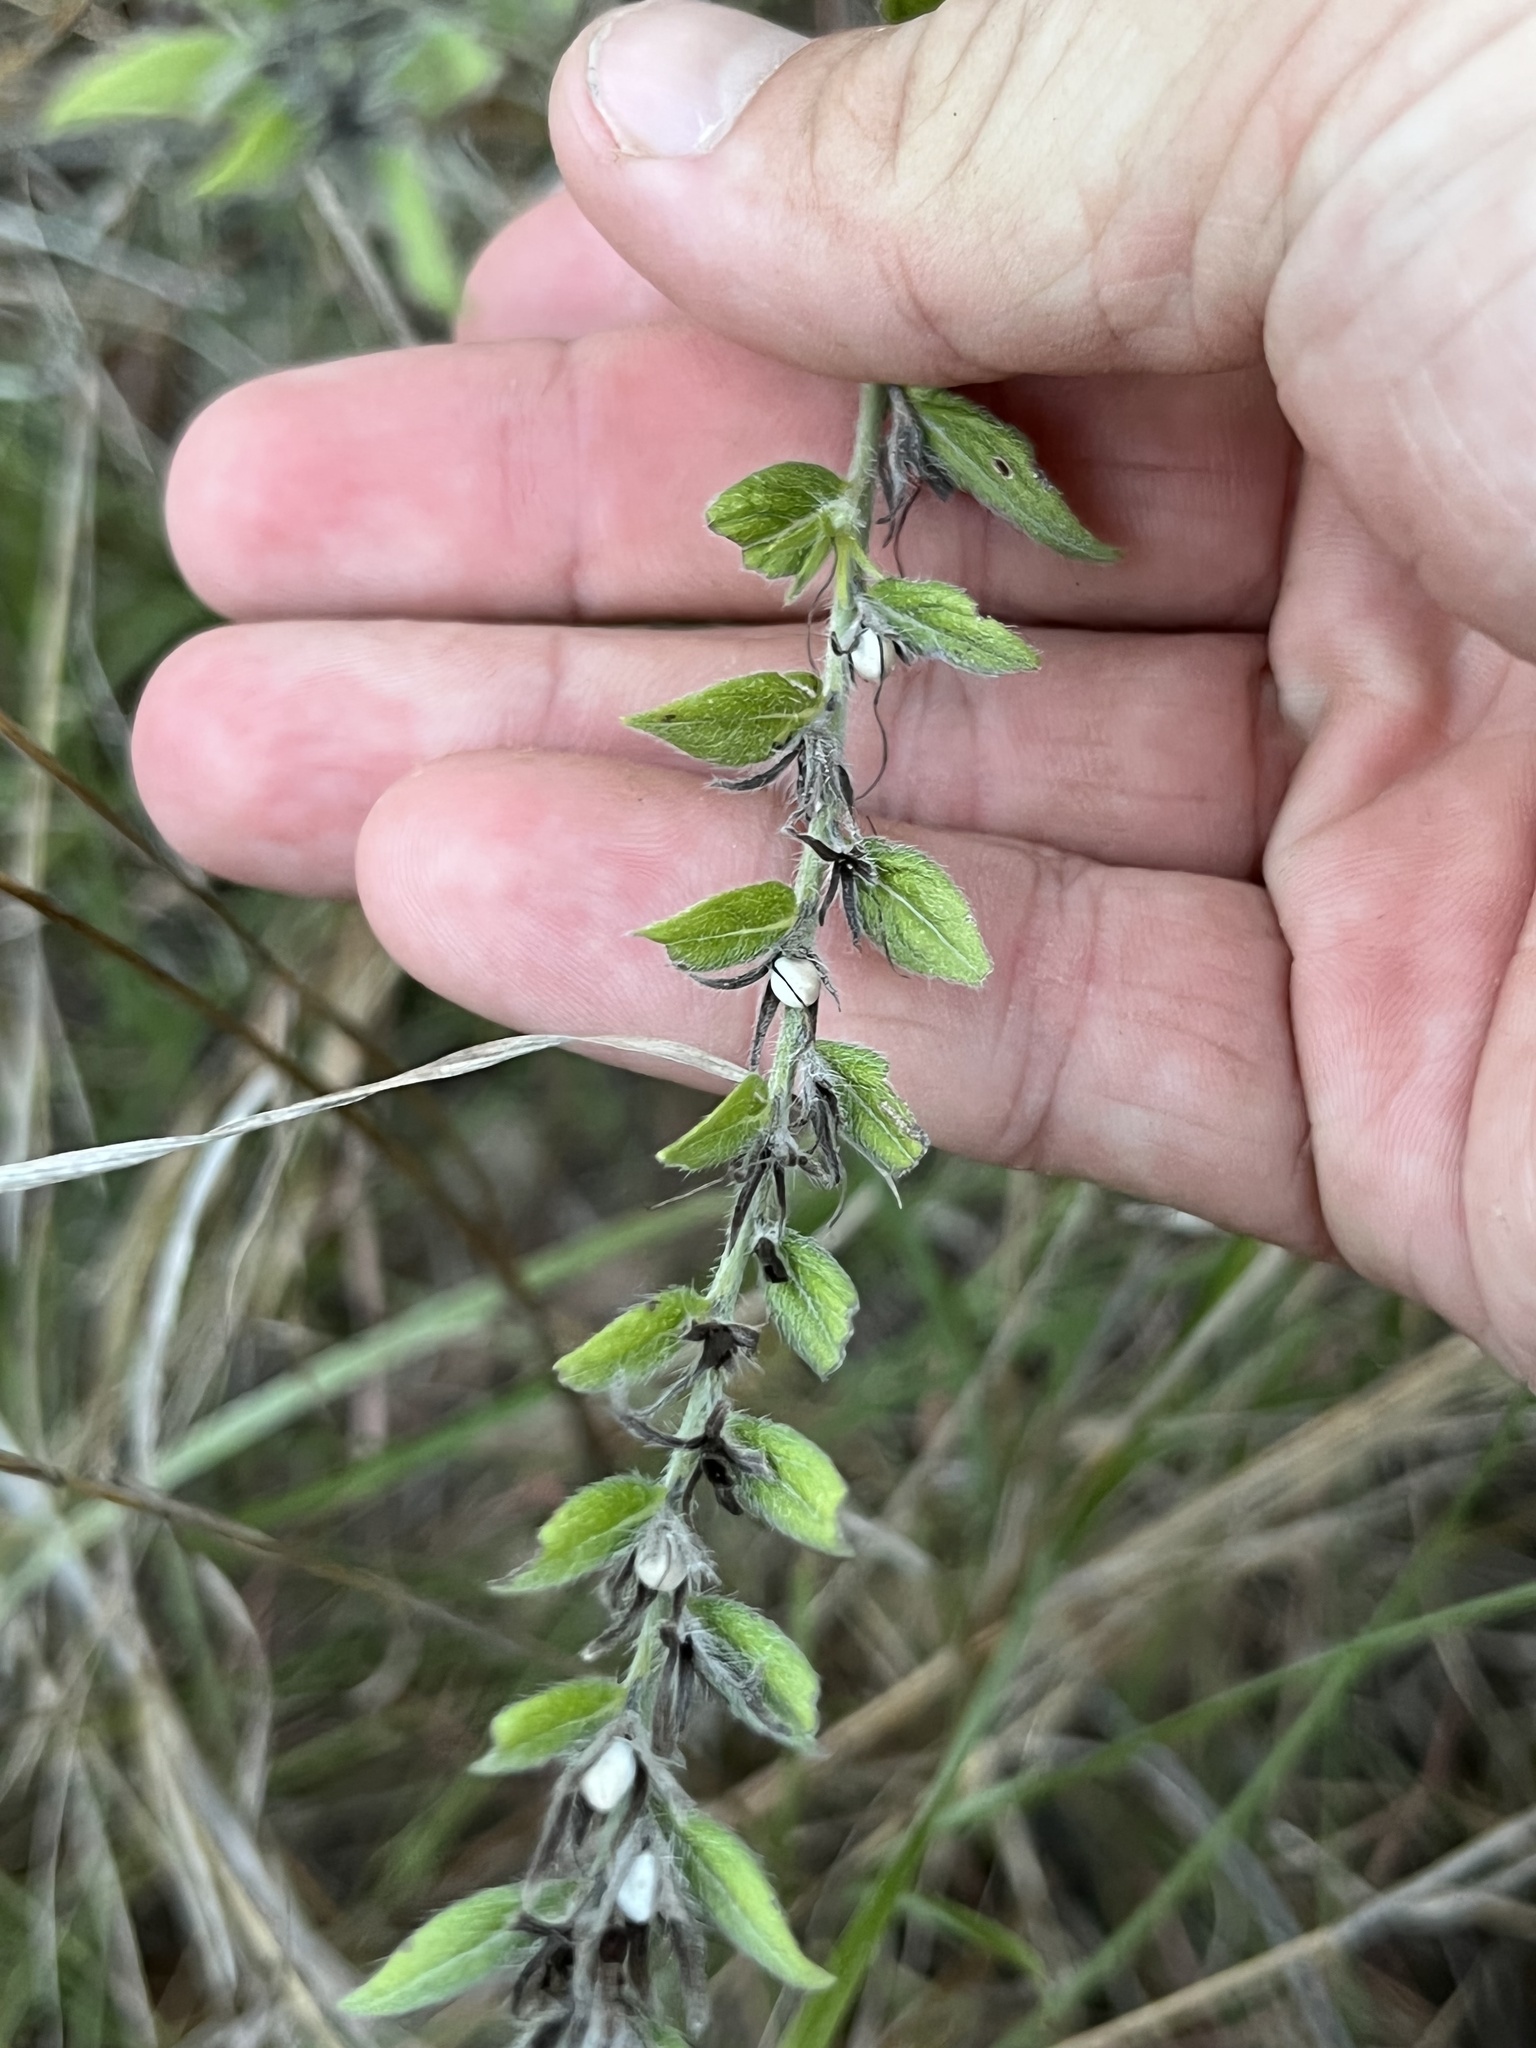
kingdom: Plantae
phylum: Tracheophyta
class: Magnoliopsida
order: Boraginales
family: Boraginaceae
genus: Lithospermum
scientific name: Lithospermum caroliniense
